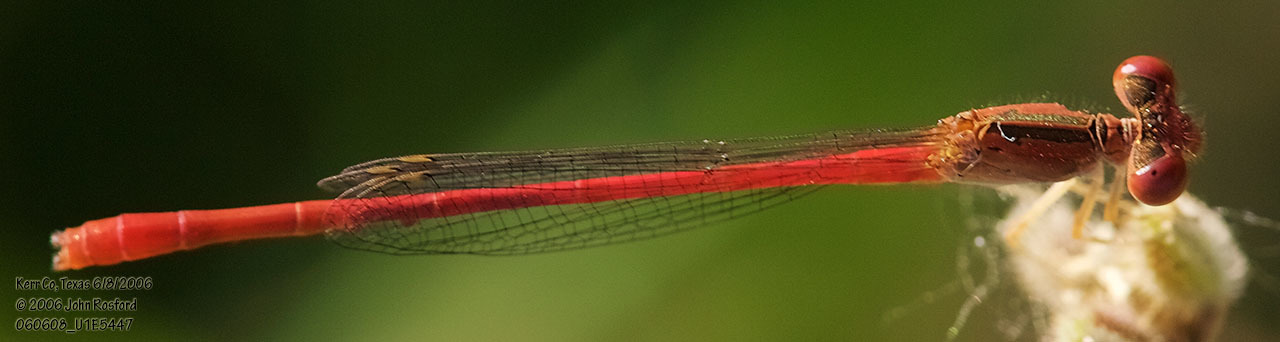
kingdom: Animalia
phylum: Arthropoda
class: Insecta
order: Odonata
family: Coenagrionidae
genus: Telebasis
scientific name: Telebasis salva
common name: Desert firetail
